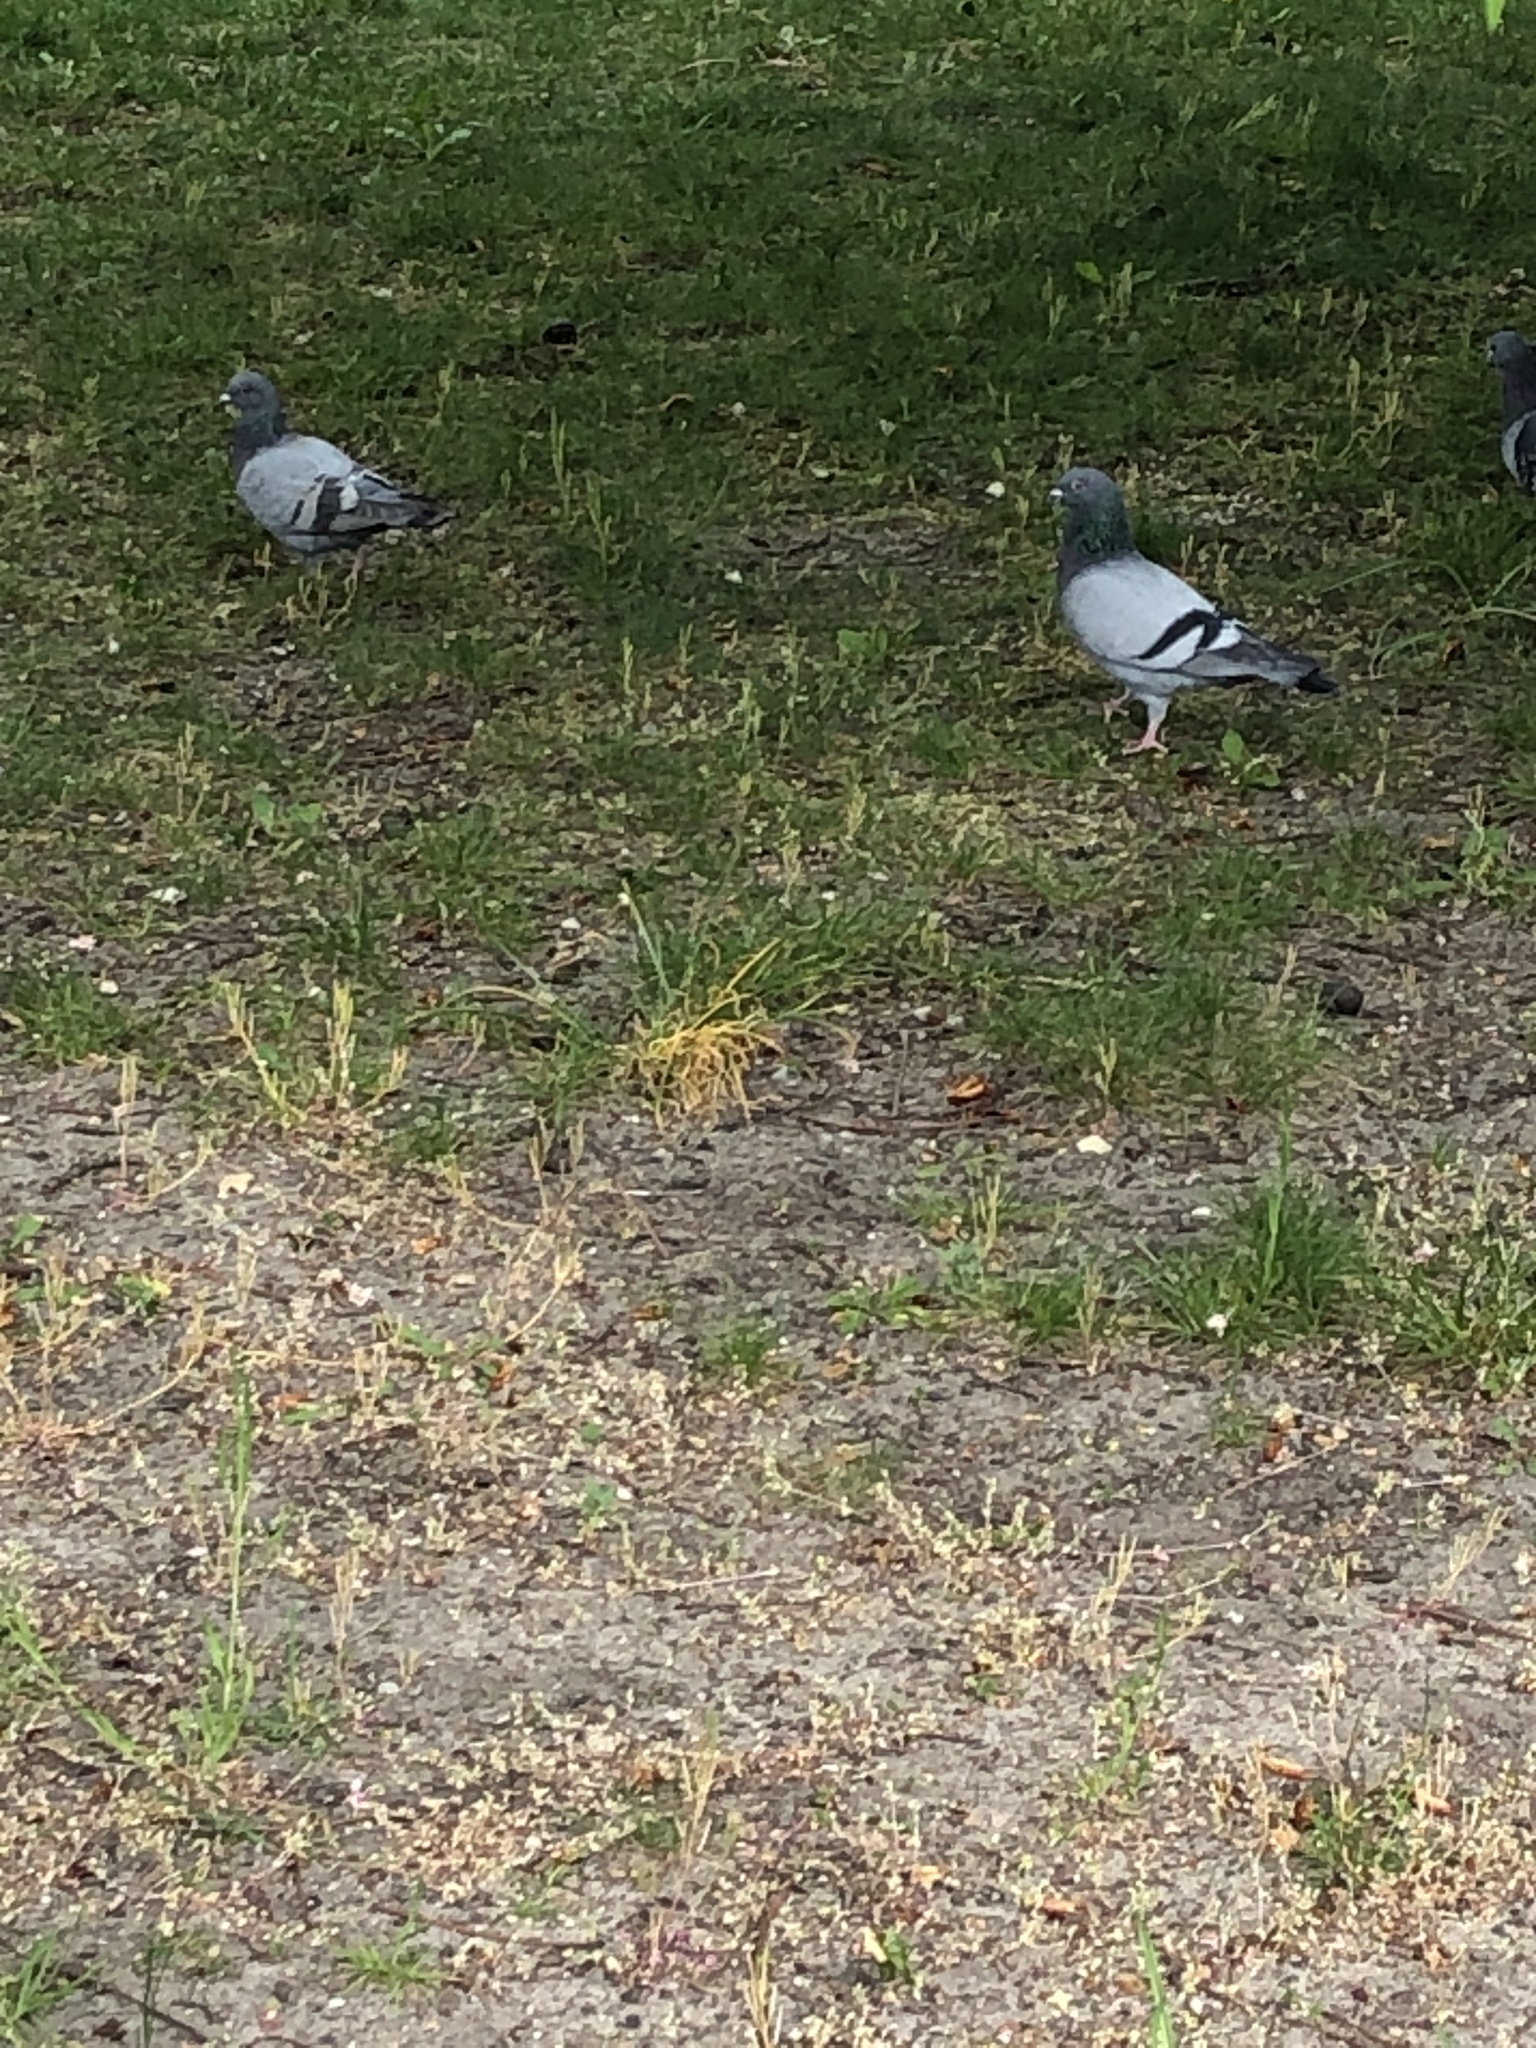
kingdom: Animalia
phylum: Chordata
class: Aves
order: Columbiformes
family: Columbidae
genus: Columba
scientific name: Columba livia
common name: Rock pigeon
